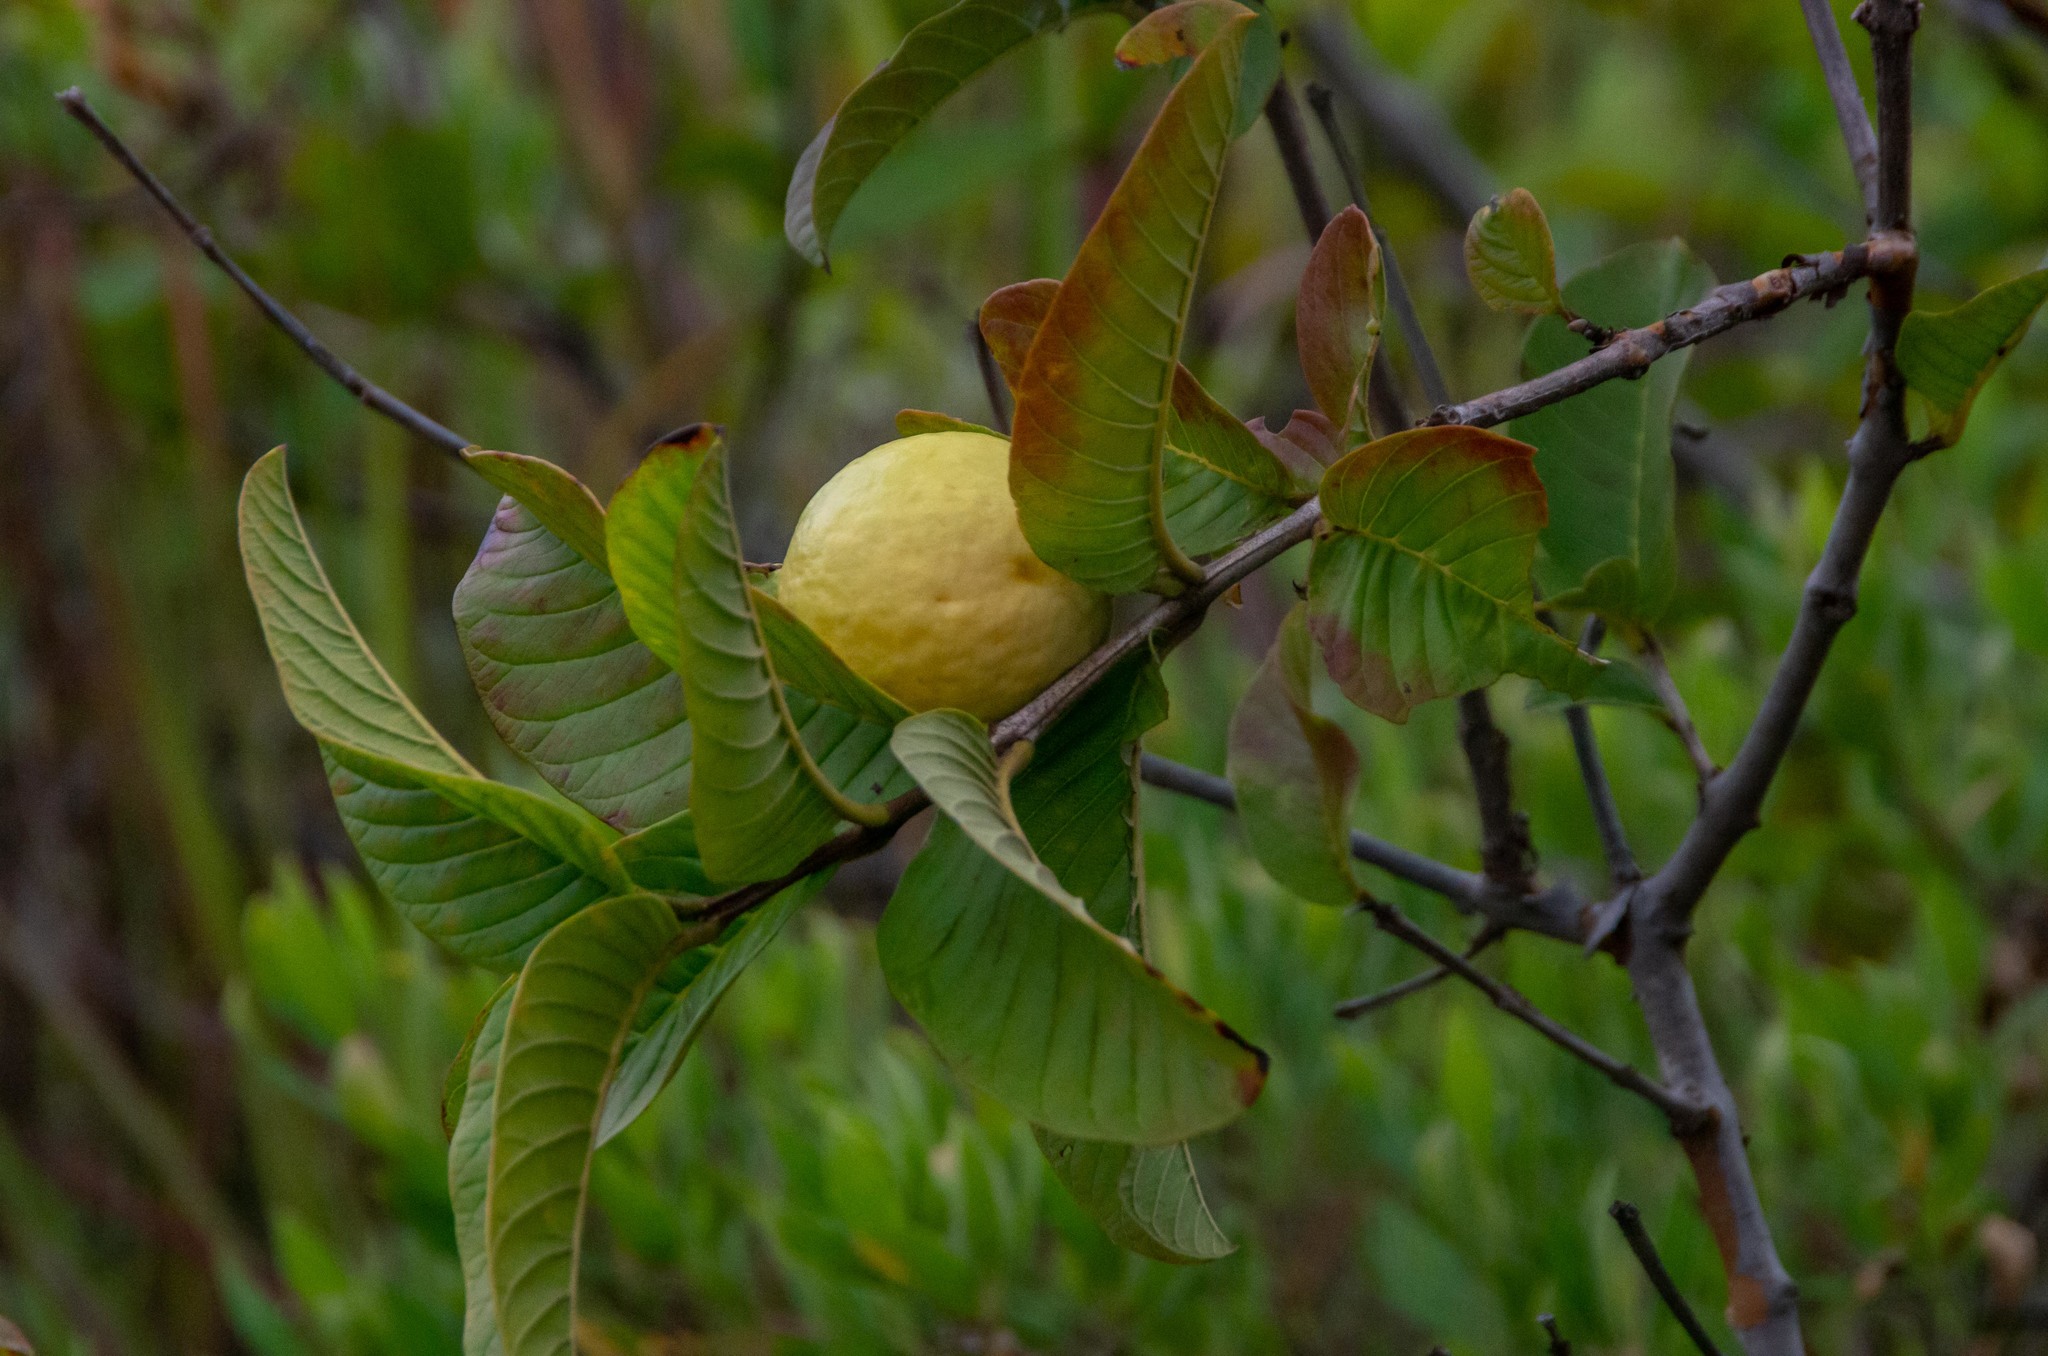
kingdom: Plantae
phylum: Tracheophyta
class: Magnoliopsida
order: Myrtales
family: Myrtaceae
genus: Psidium
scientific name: Psidium guajava
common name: Guava
